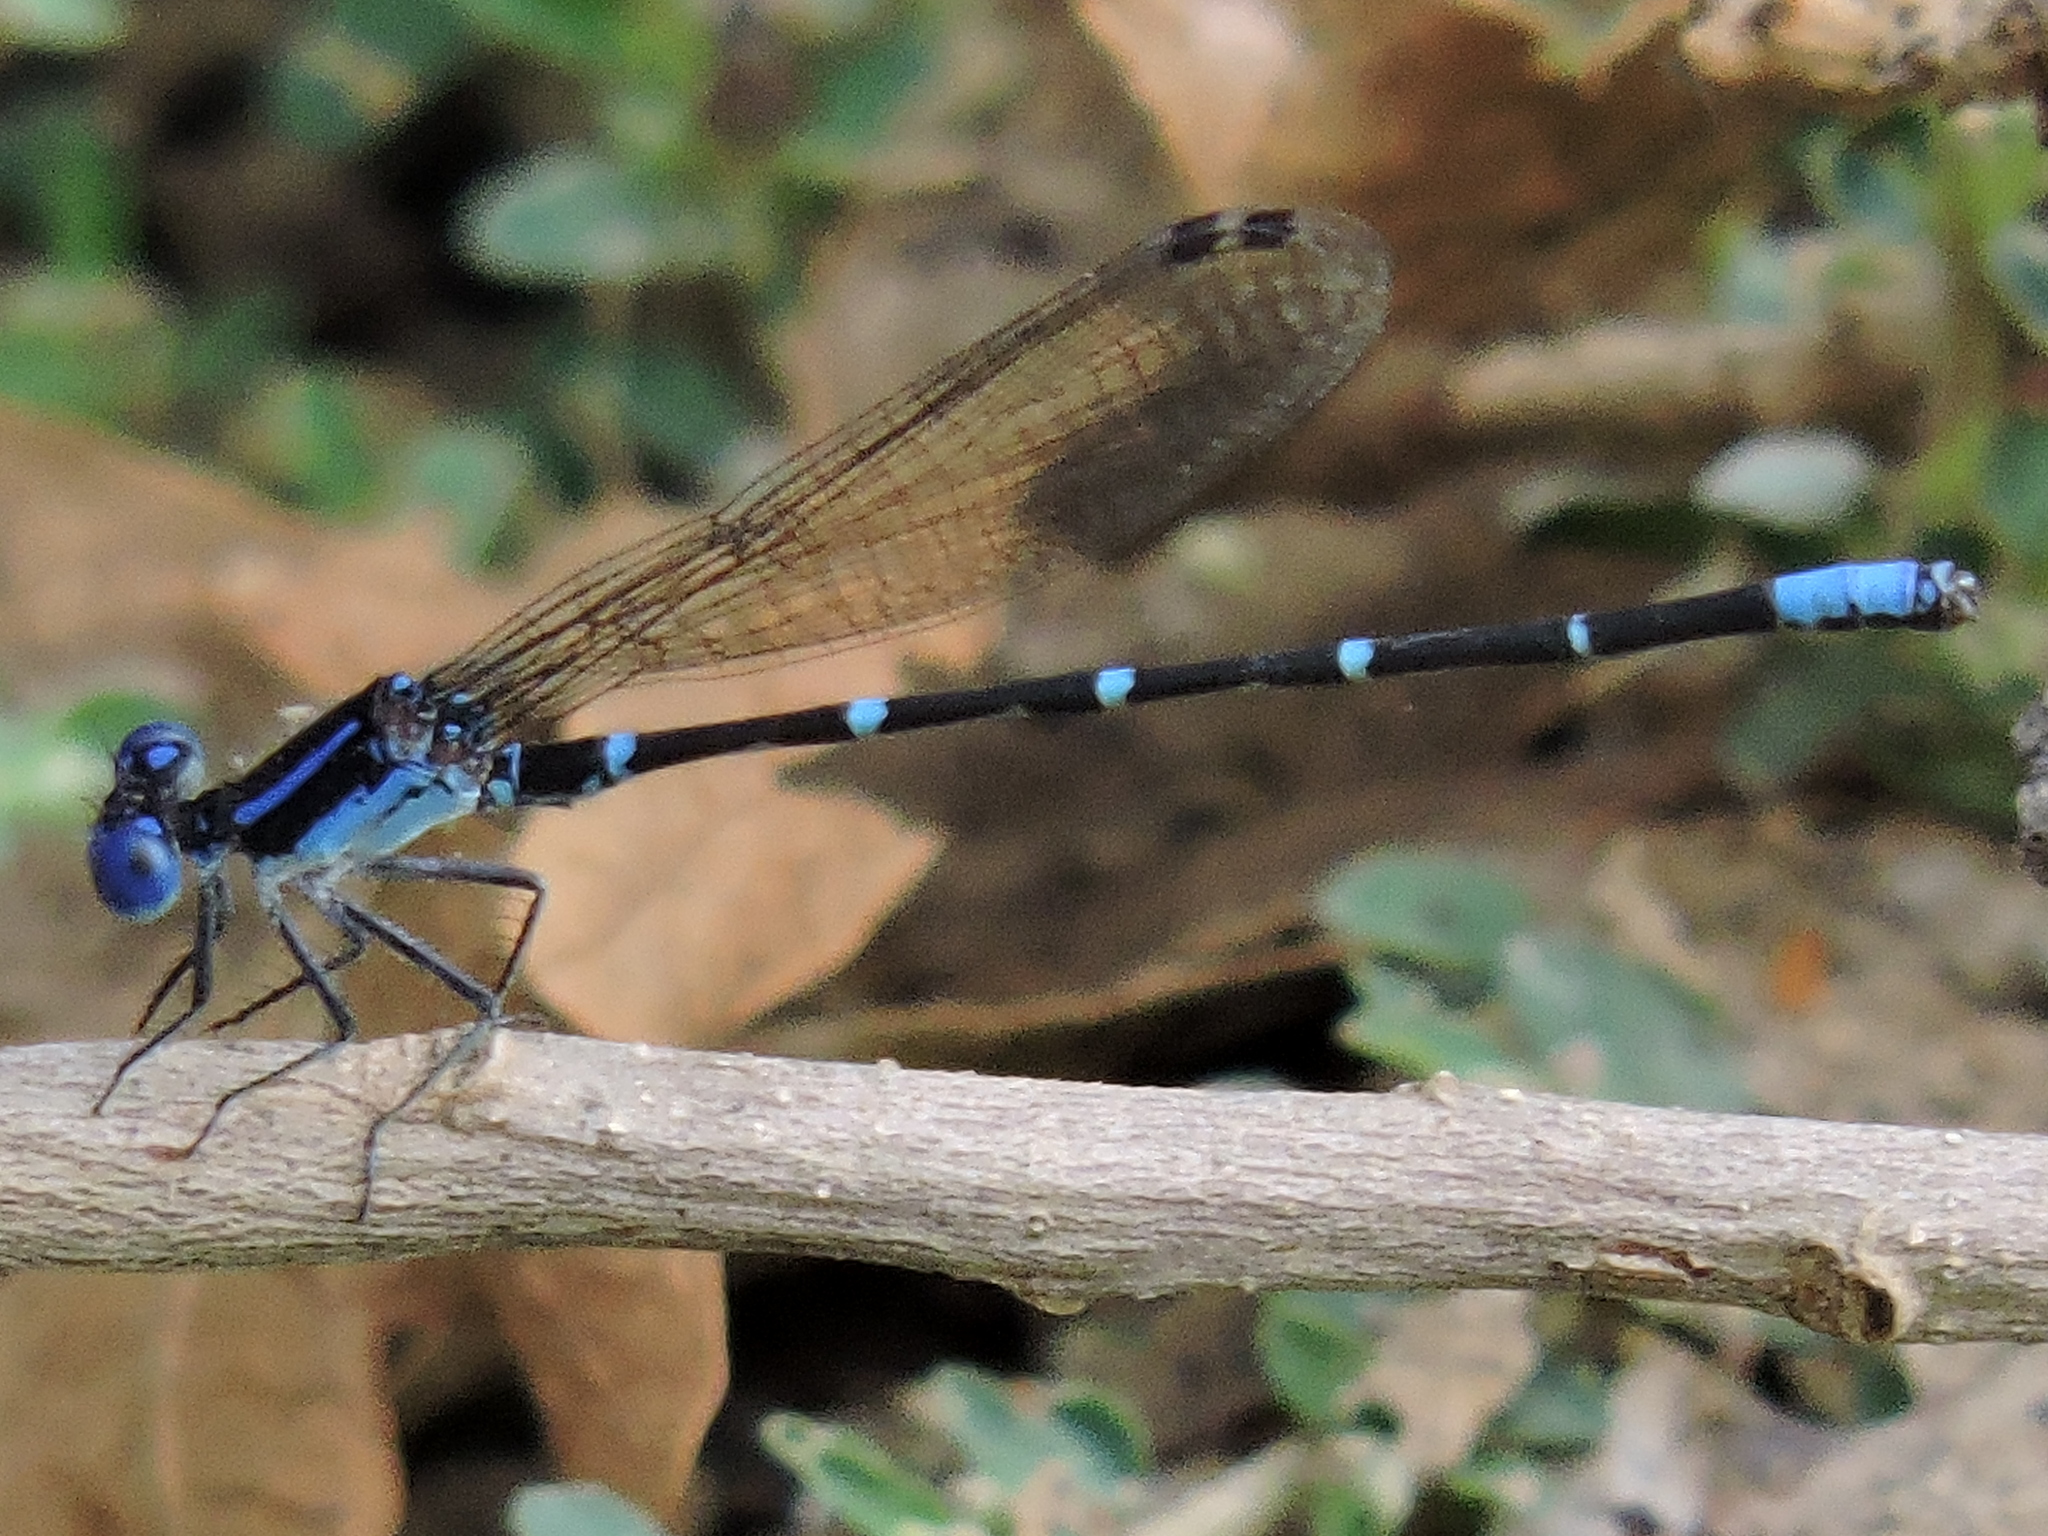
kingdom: Animalia
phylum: Arthropoda
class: Insecta
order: Odonata
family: Coenagrionidae
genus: Argia
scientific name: Argia sedula
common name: Blue-ringed dancer
